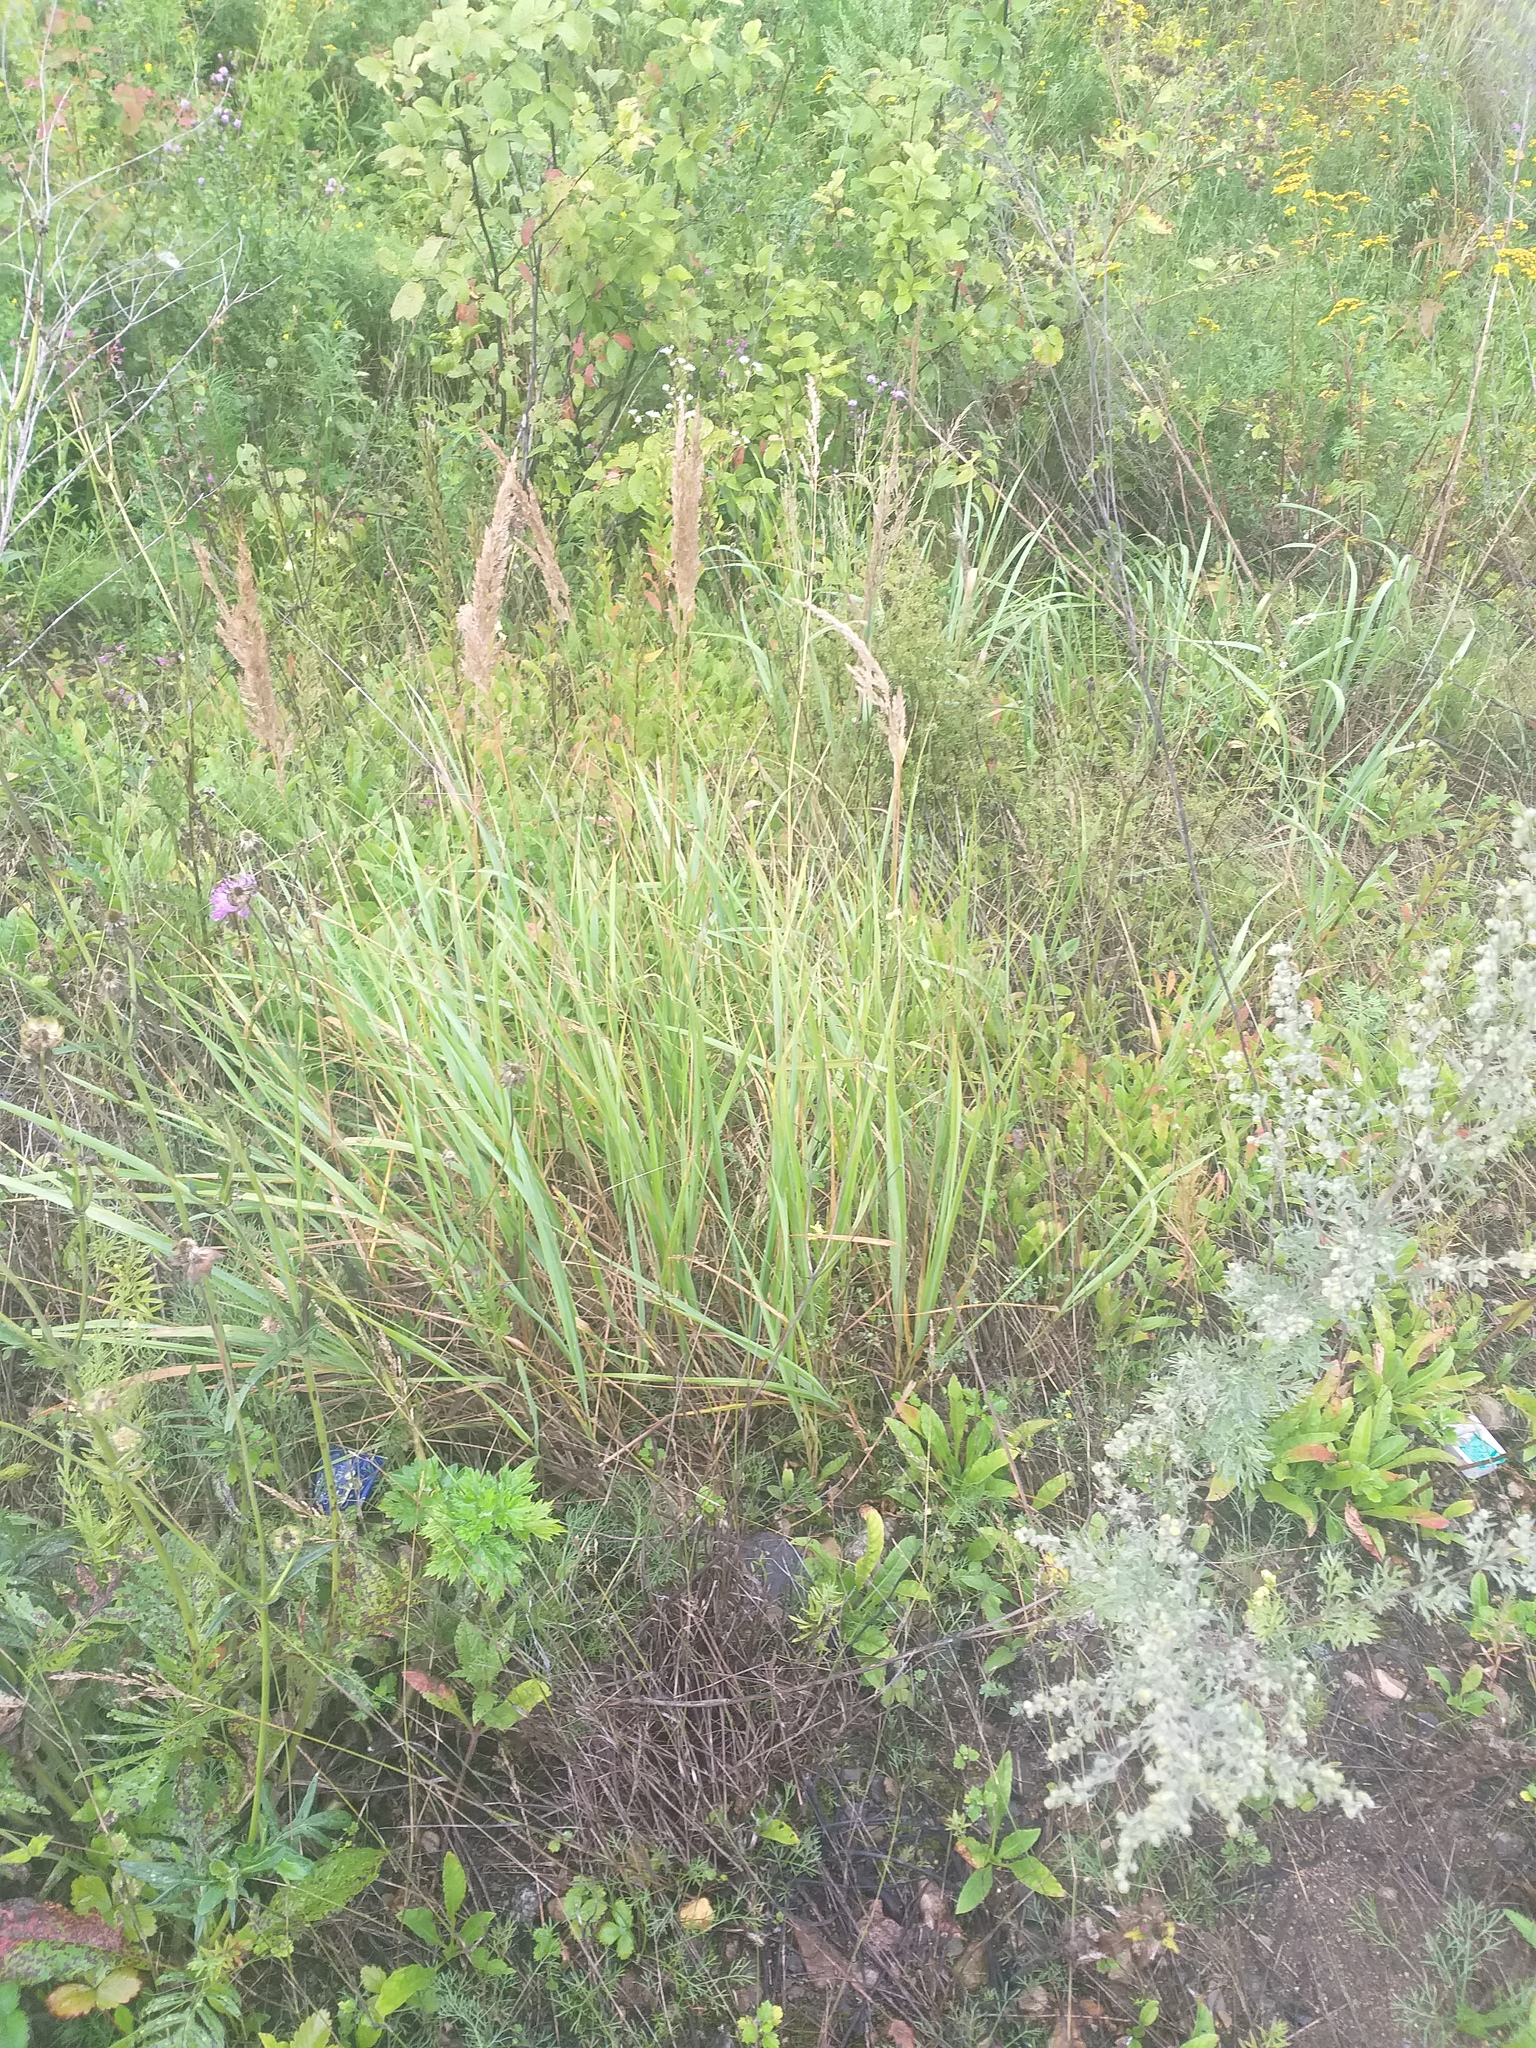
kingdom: Plantae
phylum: Tracheophyta
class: Liliopsida
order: Poales
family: Poaceae
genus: Calamagrostis
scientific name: Calamagrostis epigejos
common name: Wood small-reed
